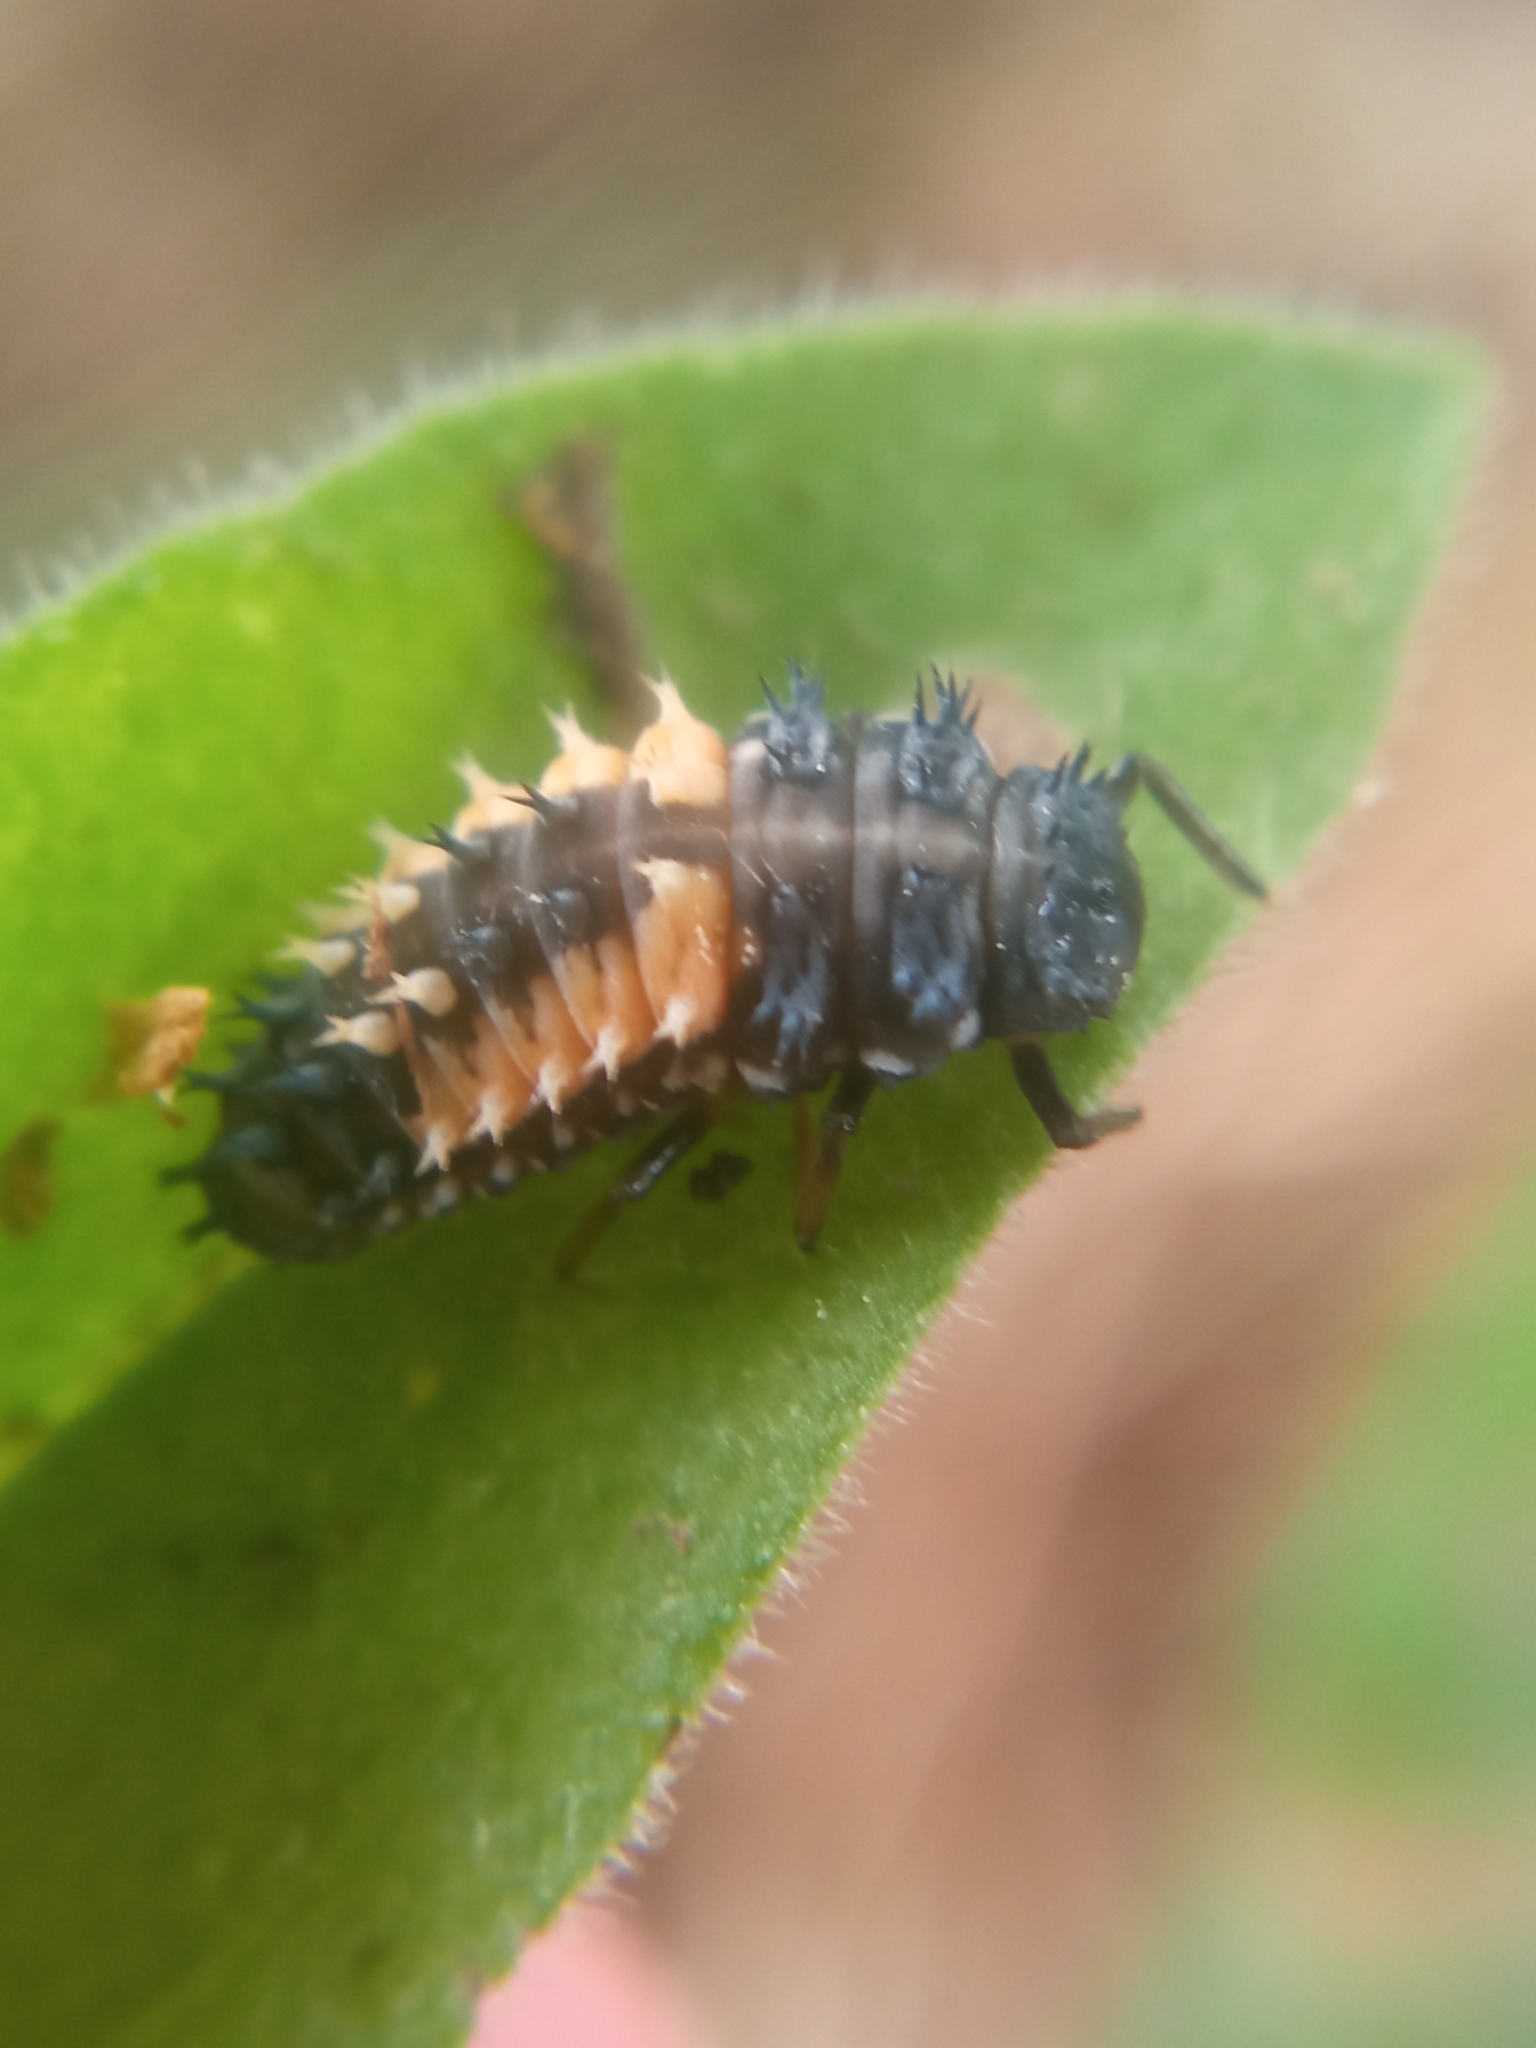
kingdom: Animalia
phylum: Arthropoda
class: Insecta
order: Coleoptera
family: Coccinellidae
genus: Harmonia
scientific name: Harmonia axyridis
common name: Harlequin ladybird
